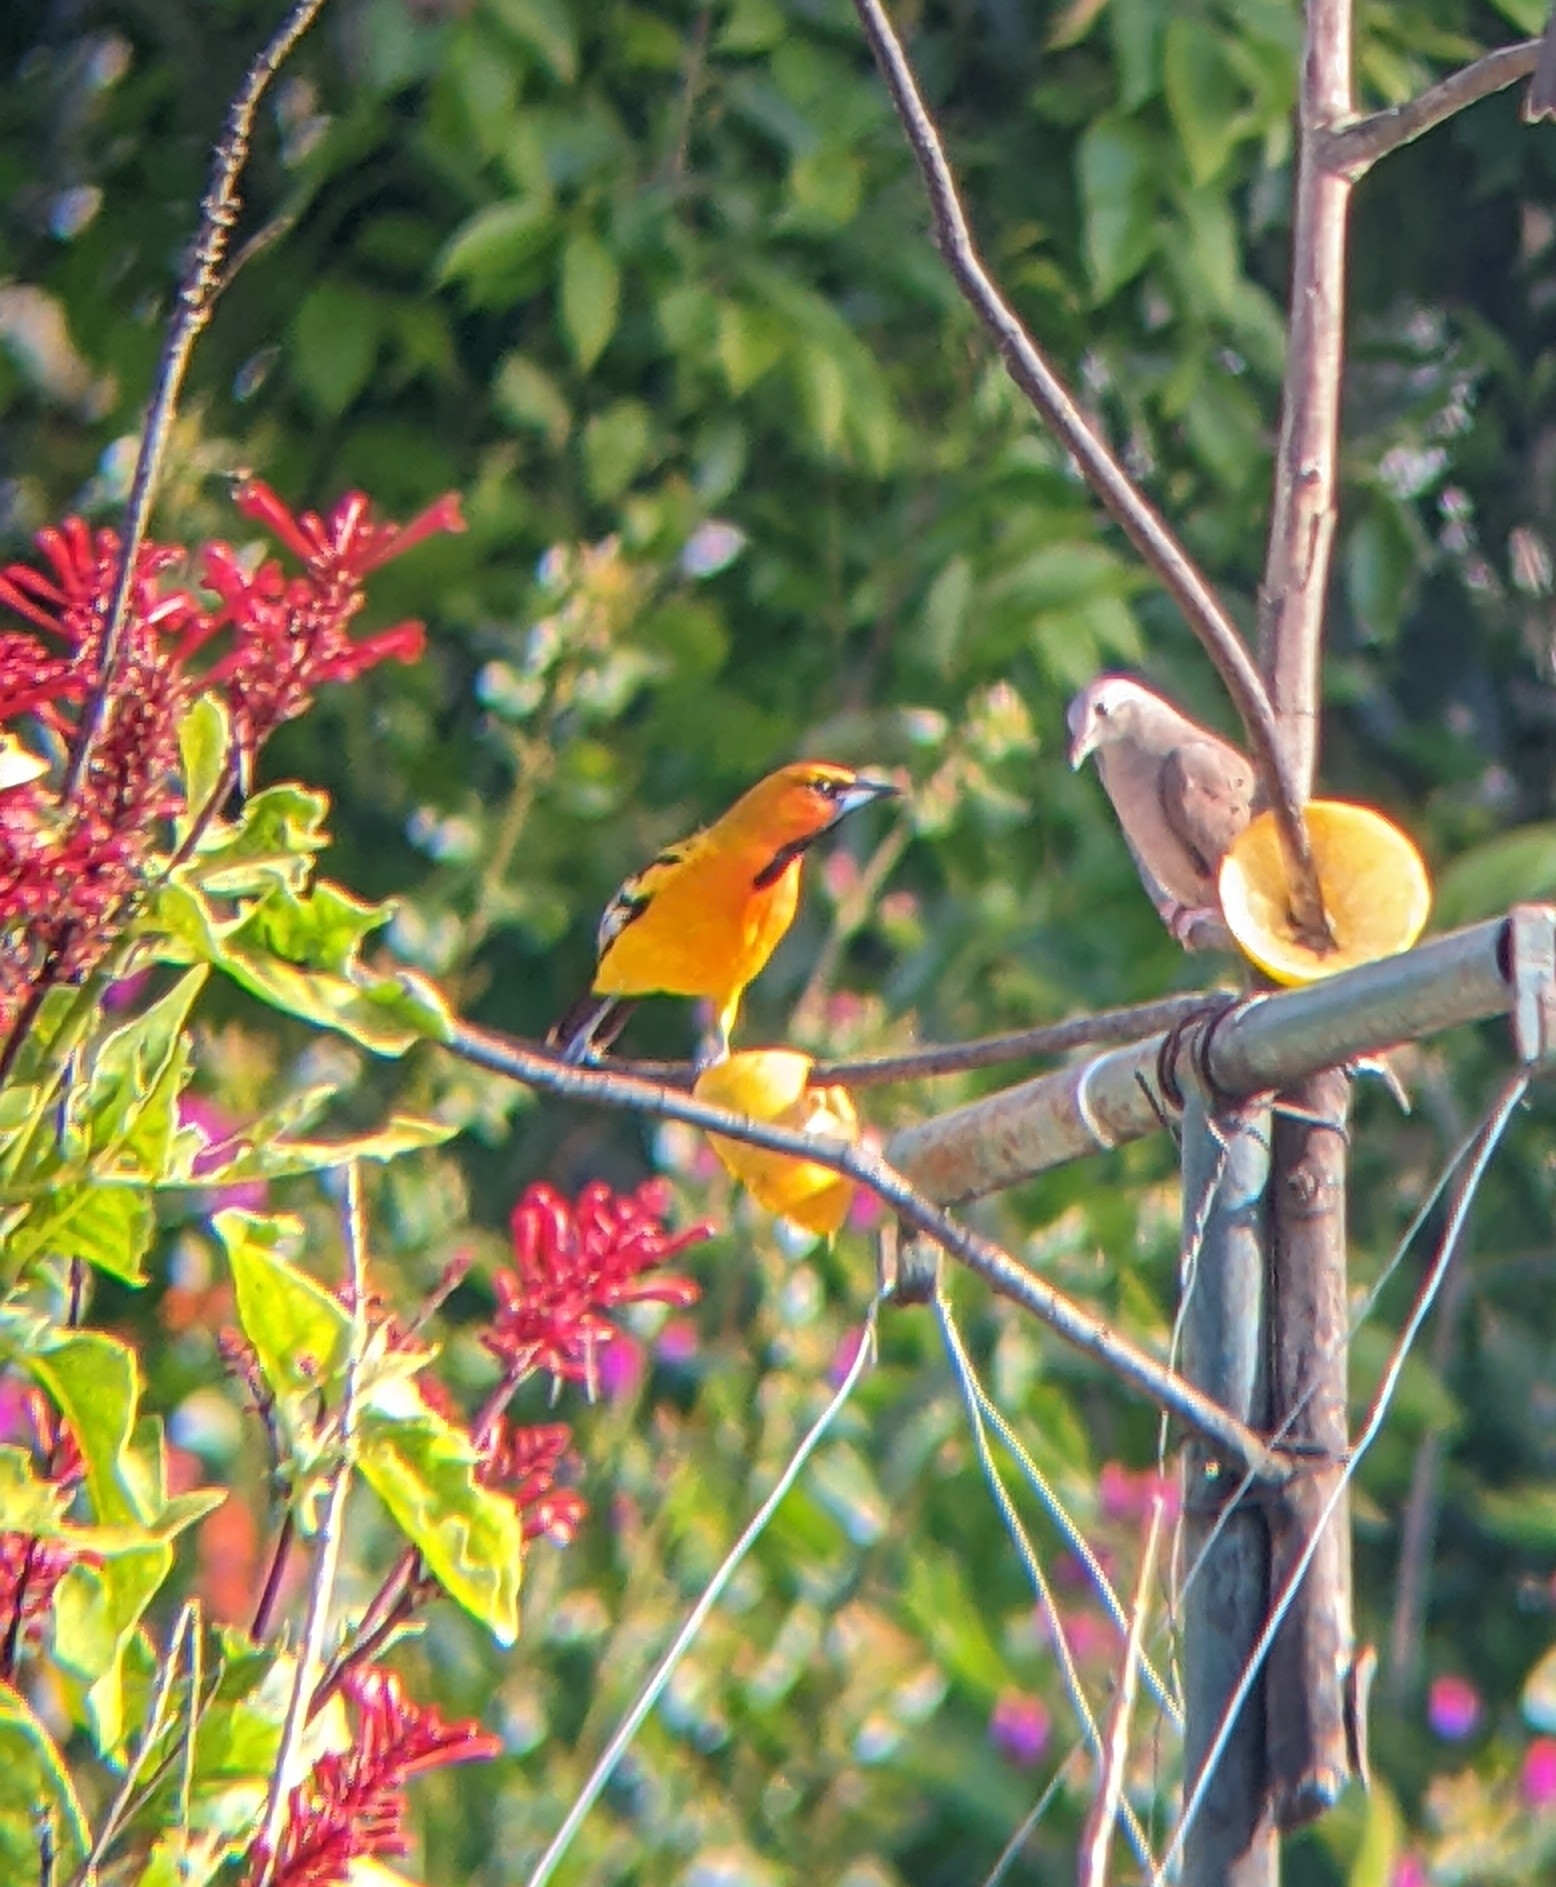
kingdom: Animalia
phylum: Chordata
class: Aves
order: Passeriformes
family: Icteridae
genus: Icterus
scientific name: Icterus pustulatus
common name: Streak-backed oriole
